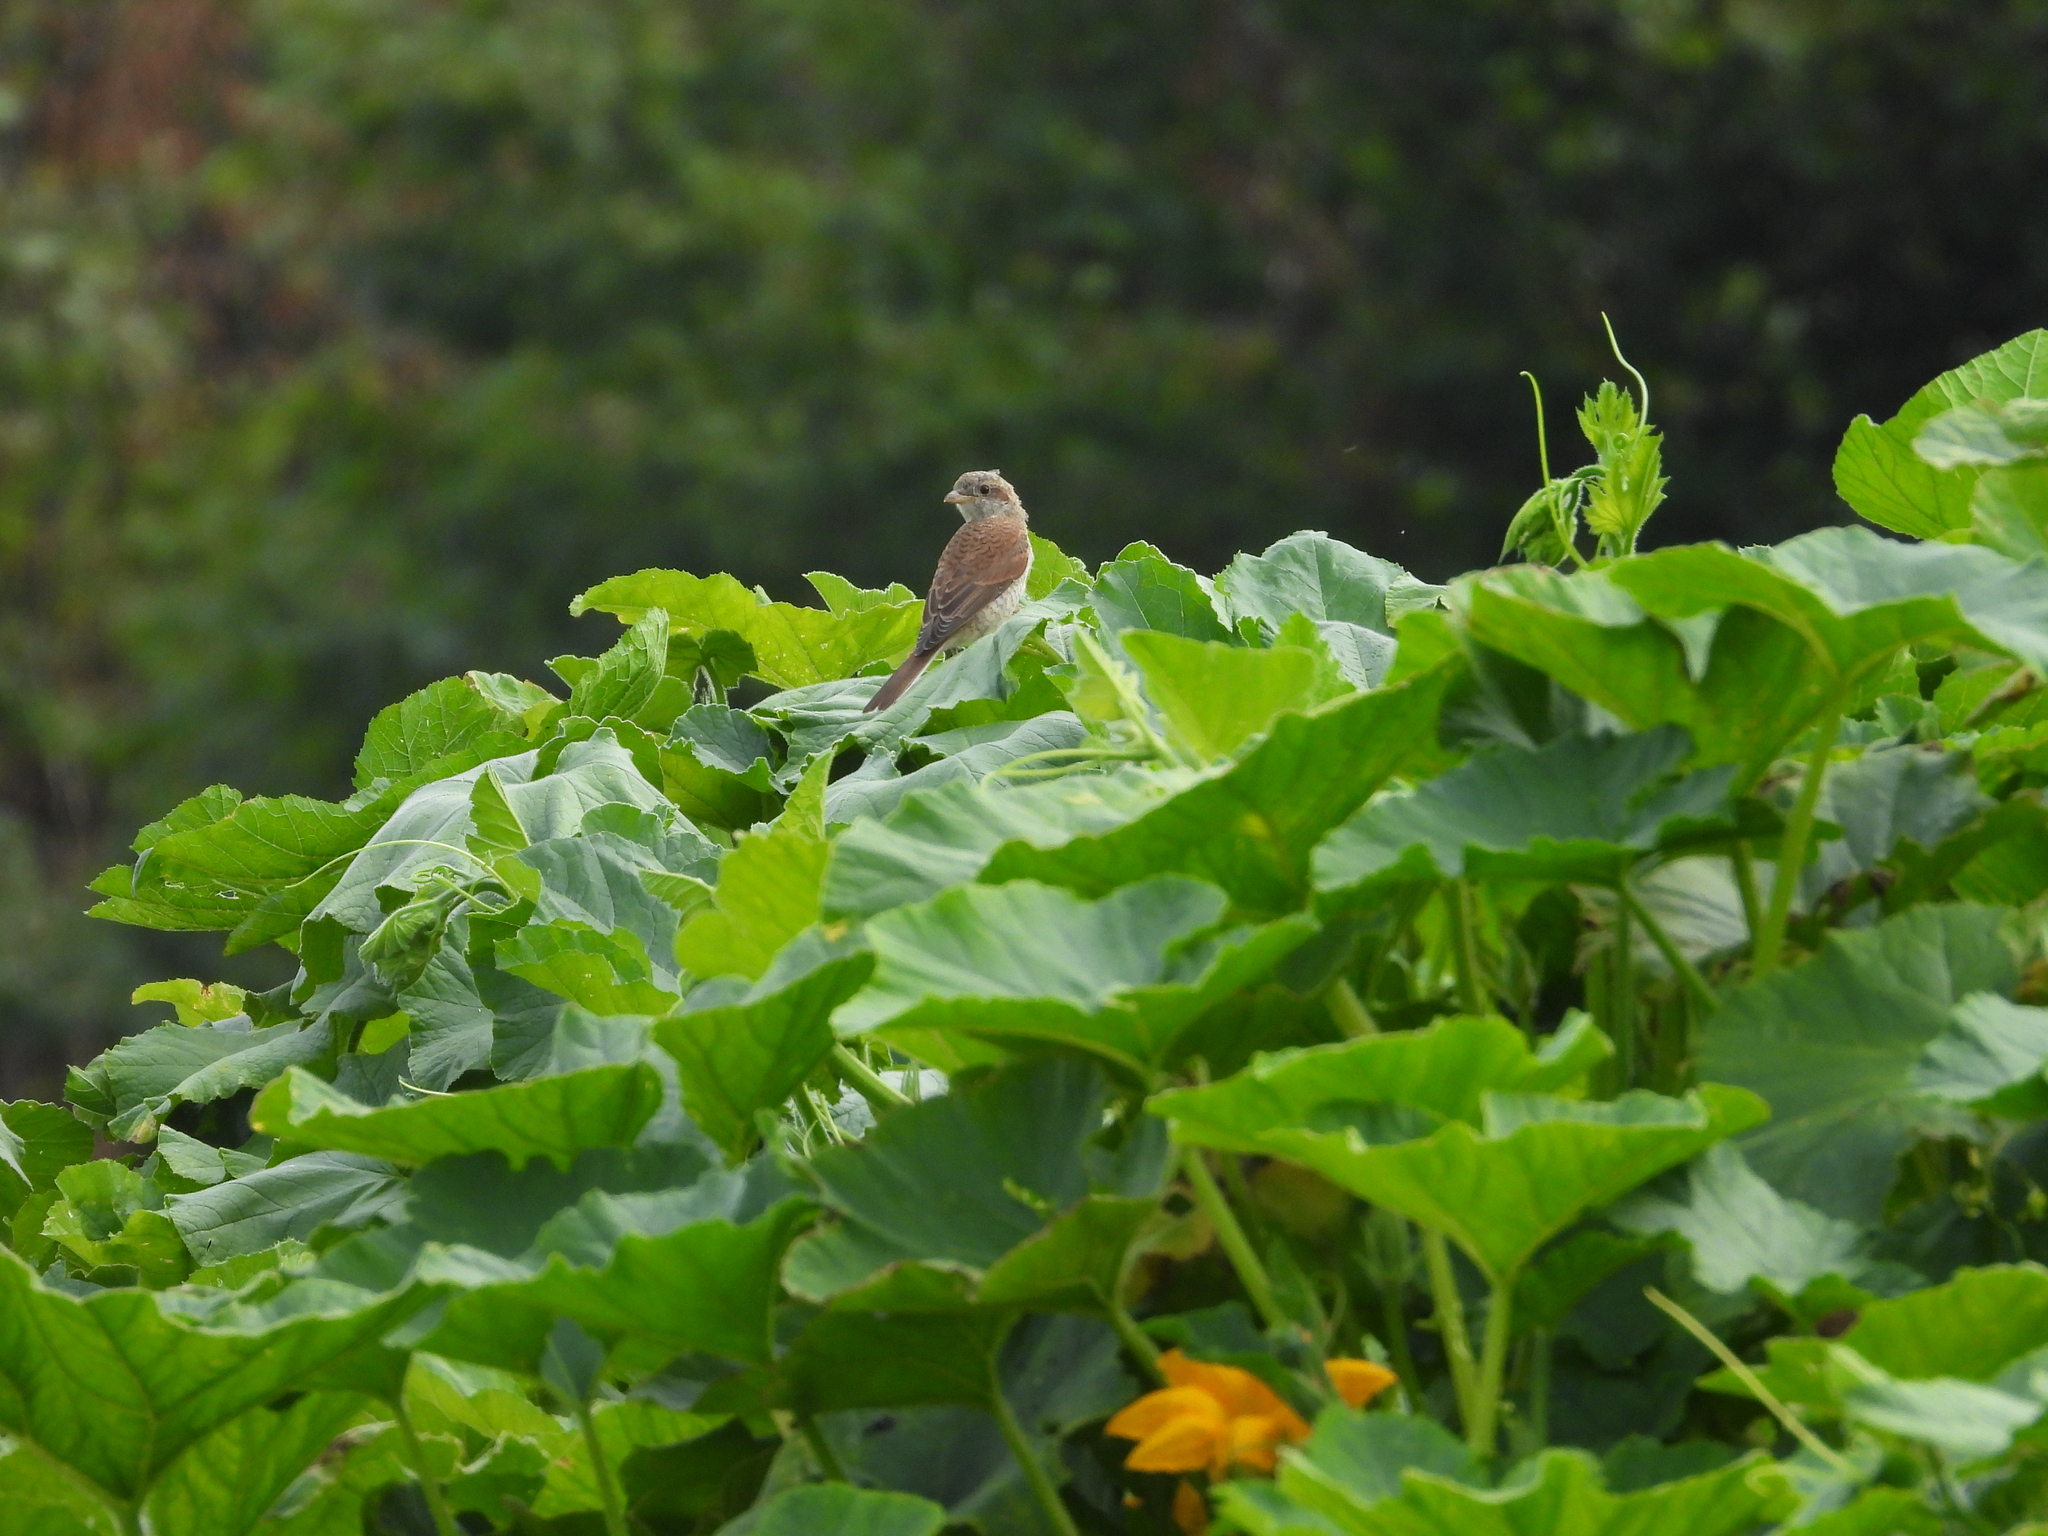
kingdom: Animalia
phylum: Chordata
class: Aves
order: Passeriformes
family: Laniidae
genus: Lanius
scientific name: Lanius collurio
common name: Red-backed shrike
